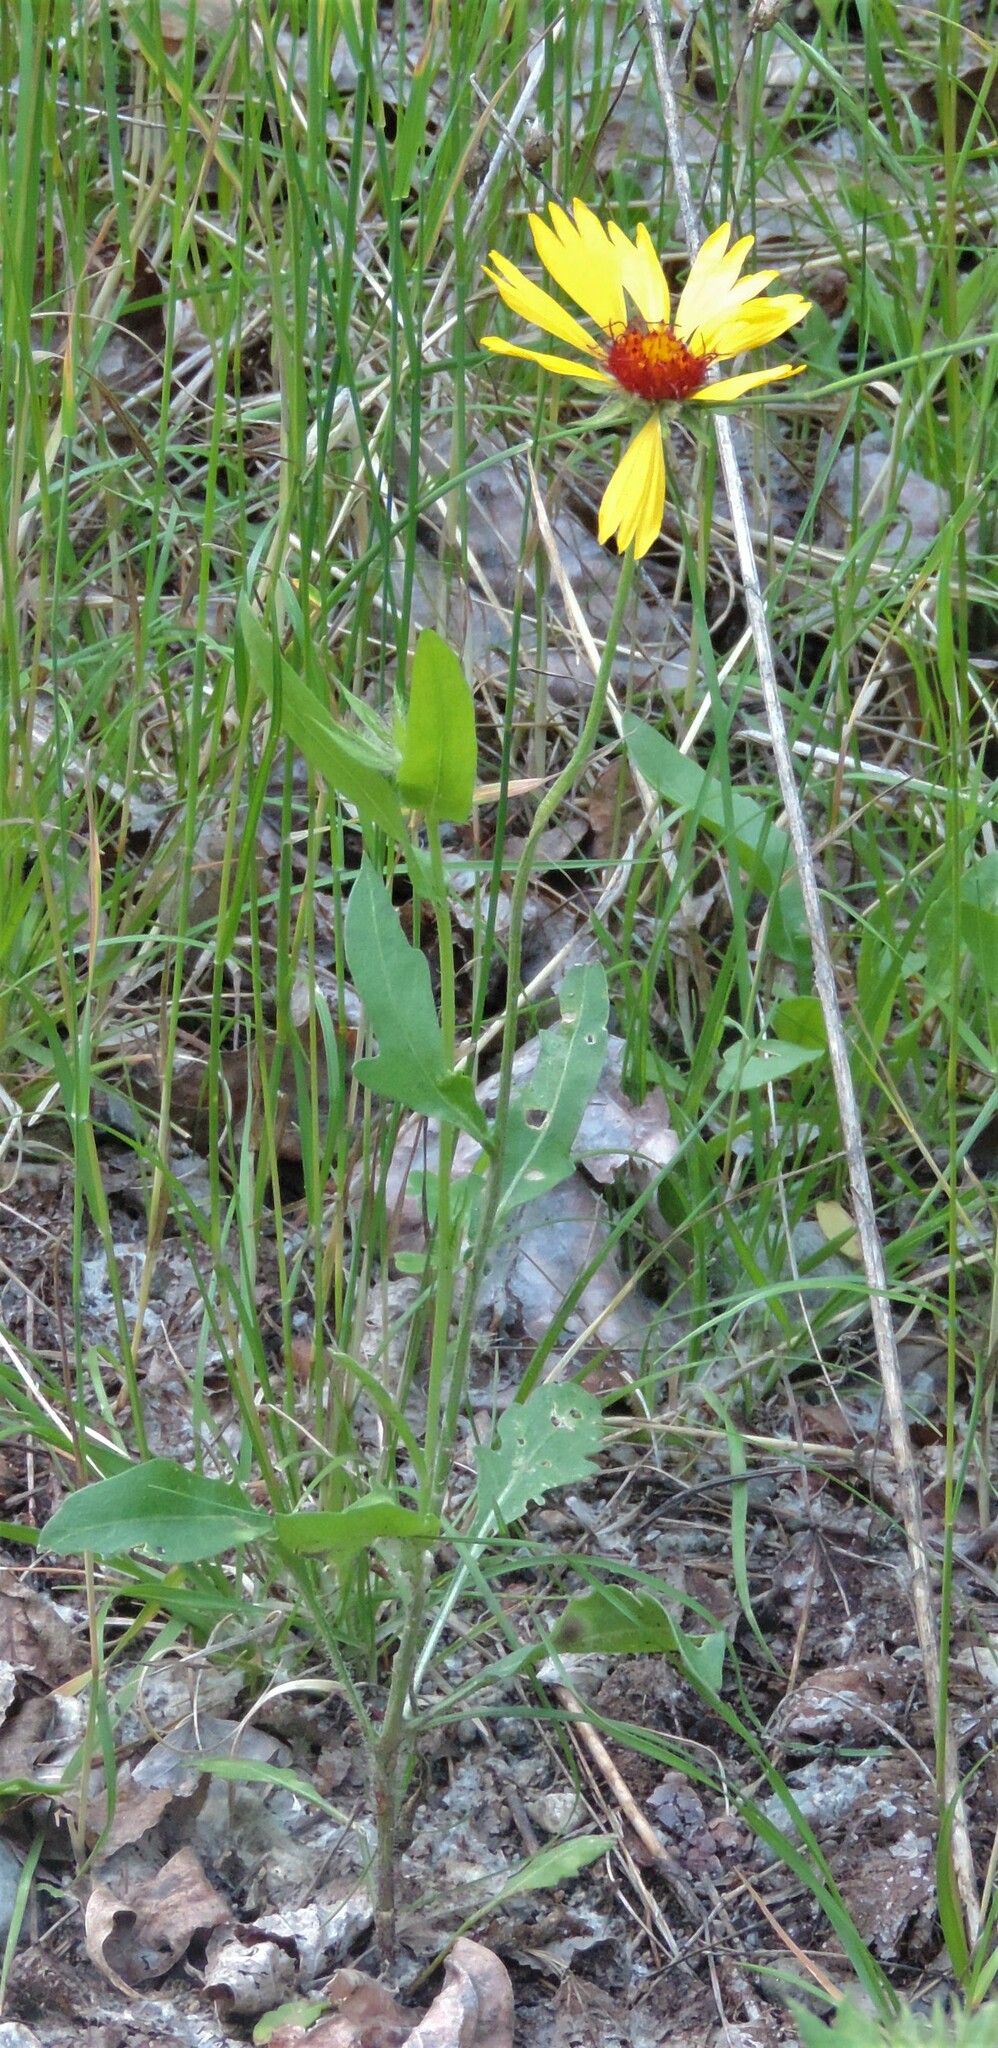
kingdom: Plantae
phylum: Tracheophyta
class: Magnoliopsida
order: Asterales
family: Asteraceae
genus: Gaillardia
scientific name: Gaillardia aristata
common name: Blanket-flower
